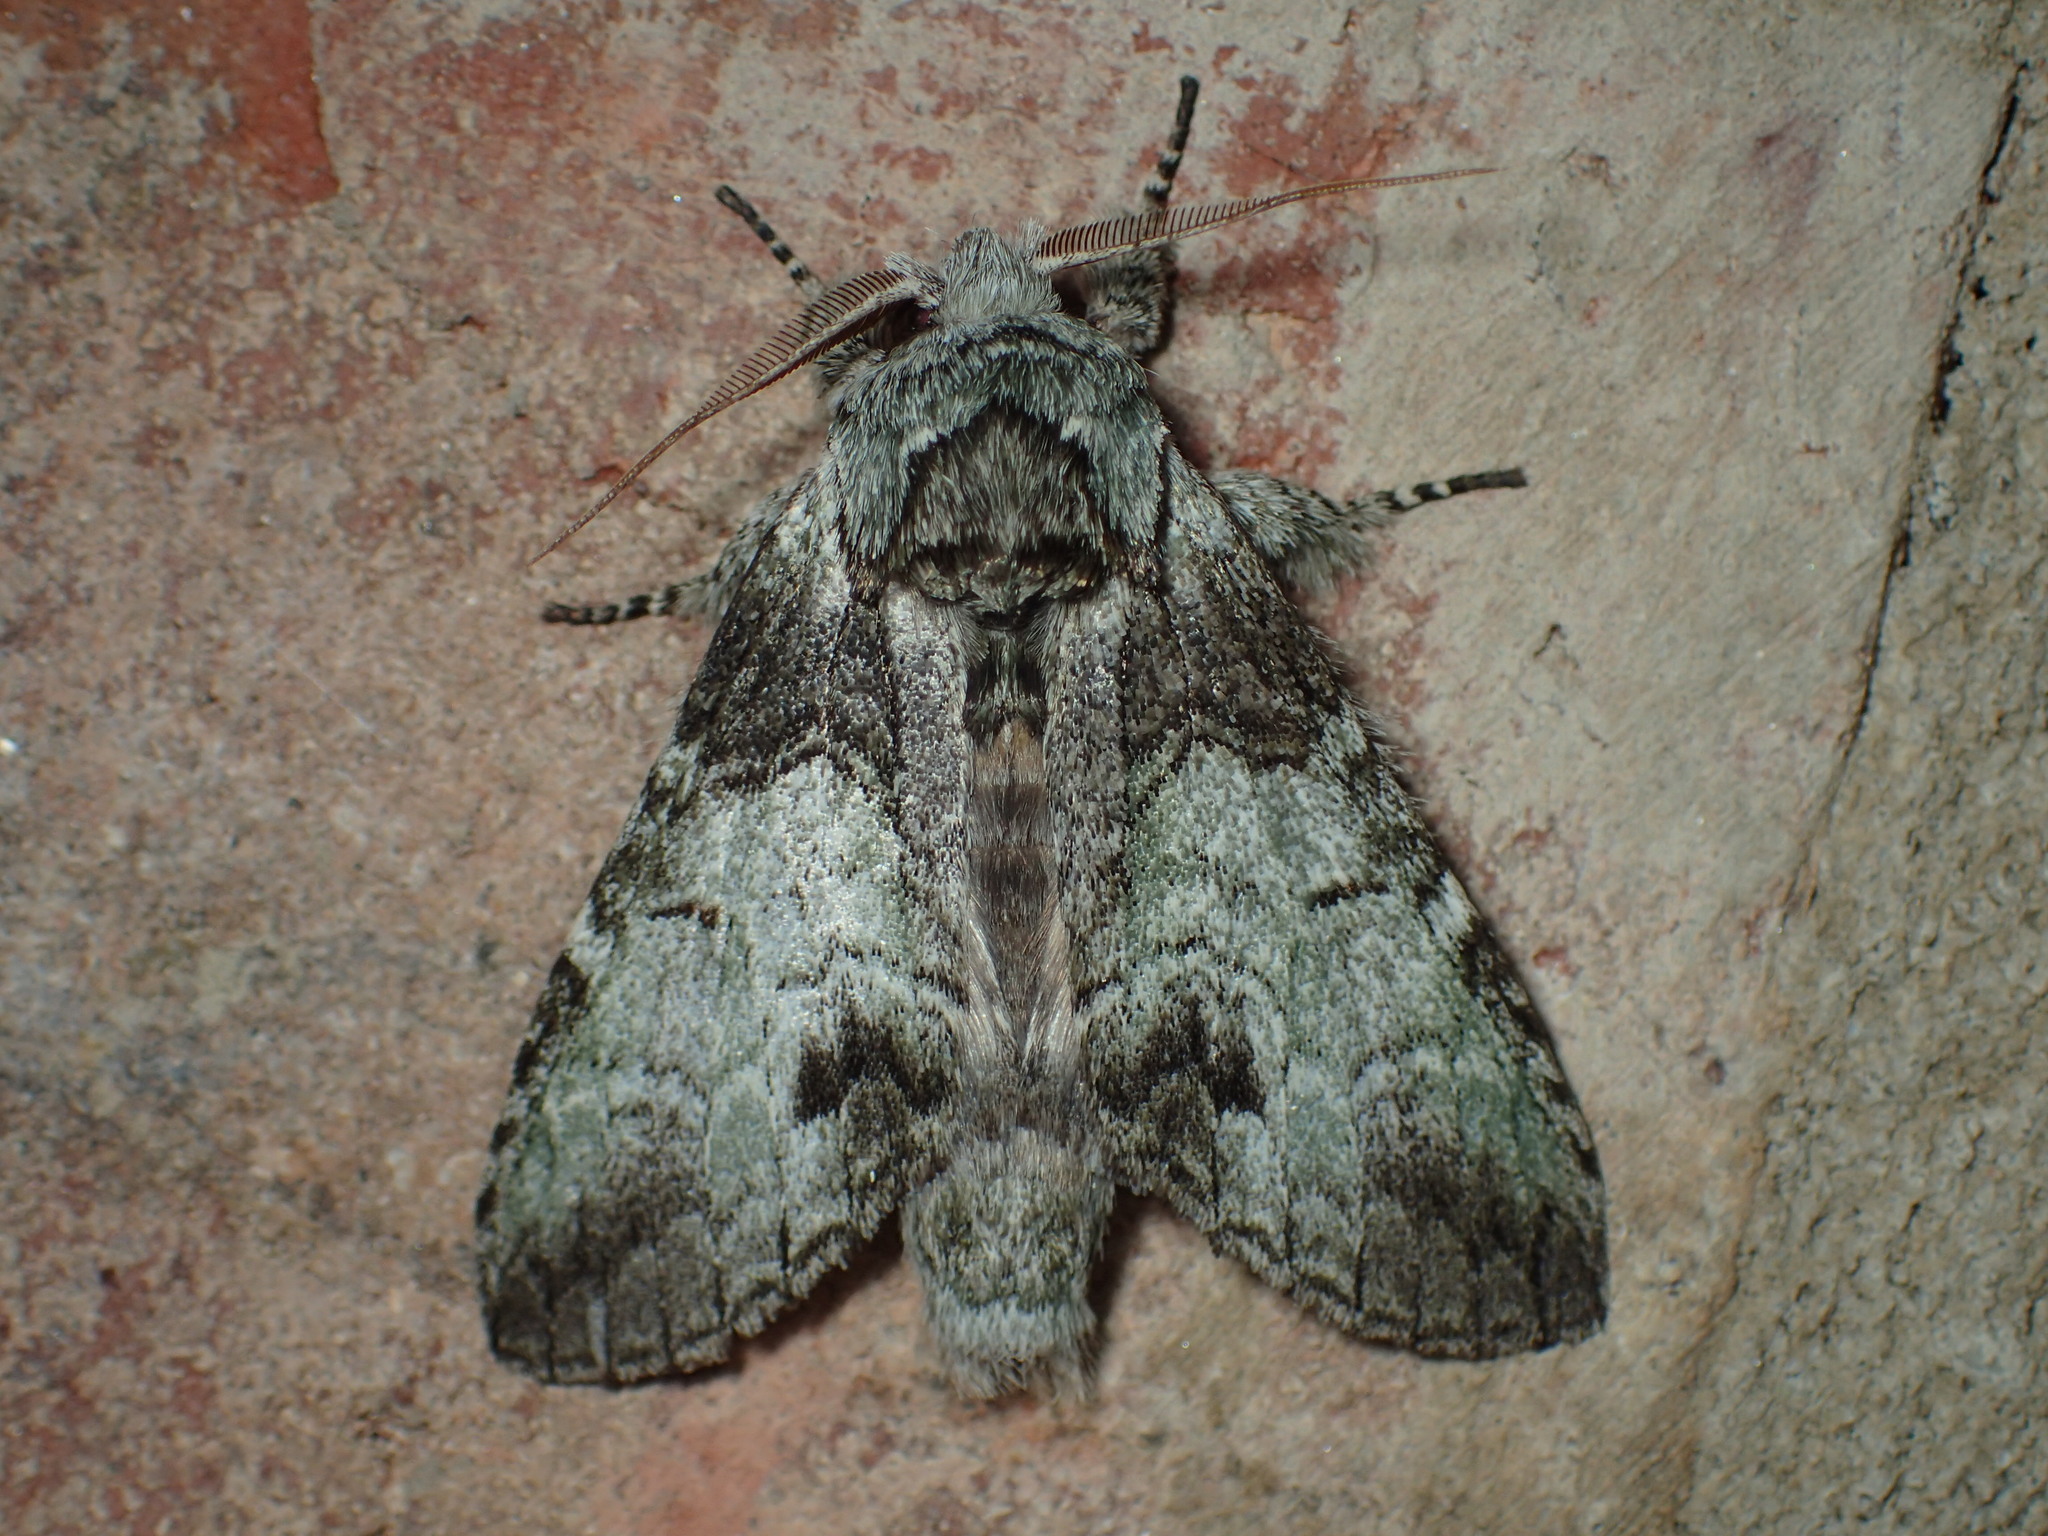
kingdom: Animalia
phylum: Arthropoda
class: Insecta
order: Lepidoptera
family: Notodontidae
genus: Macrurocampa
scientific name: Macrurocampa marthesia
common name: Mottled prominent
